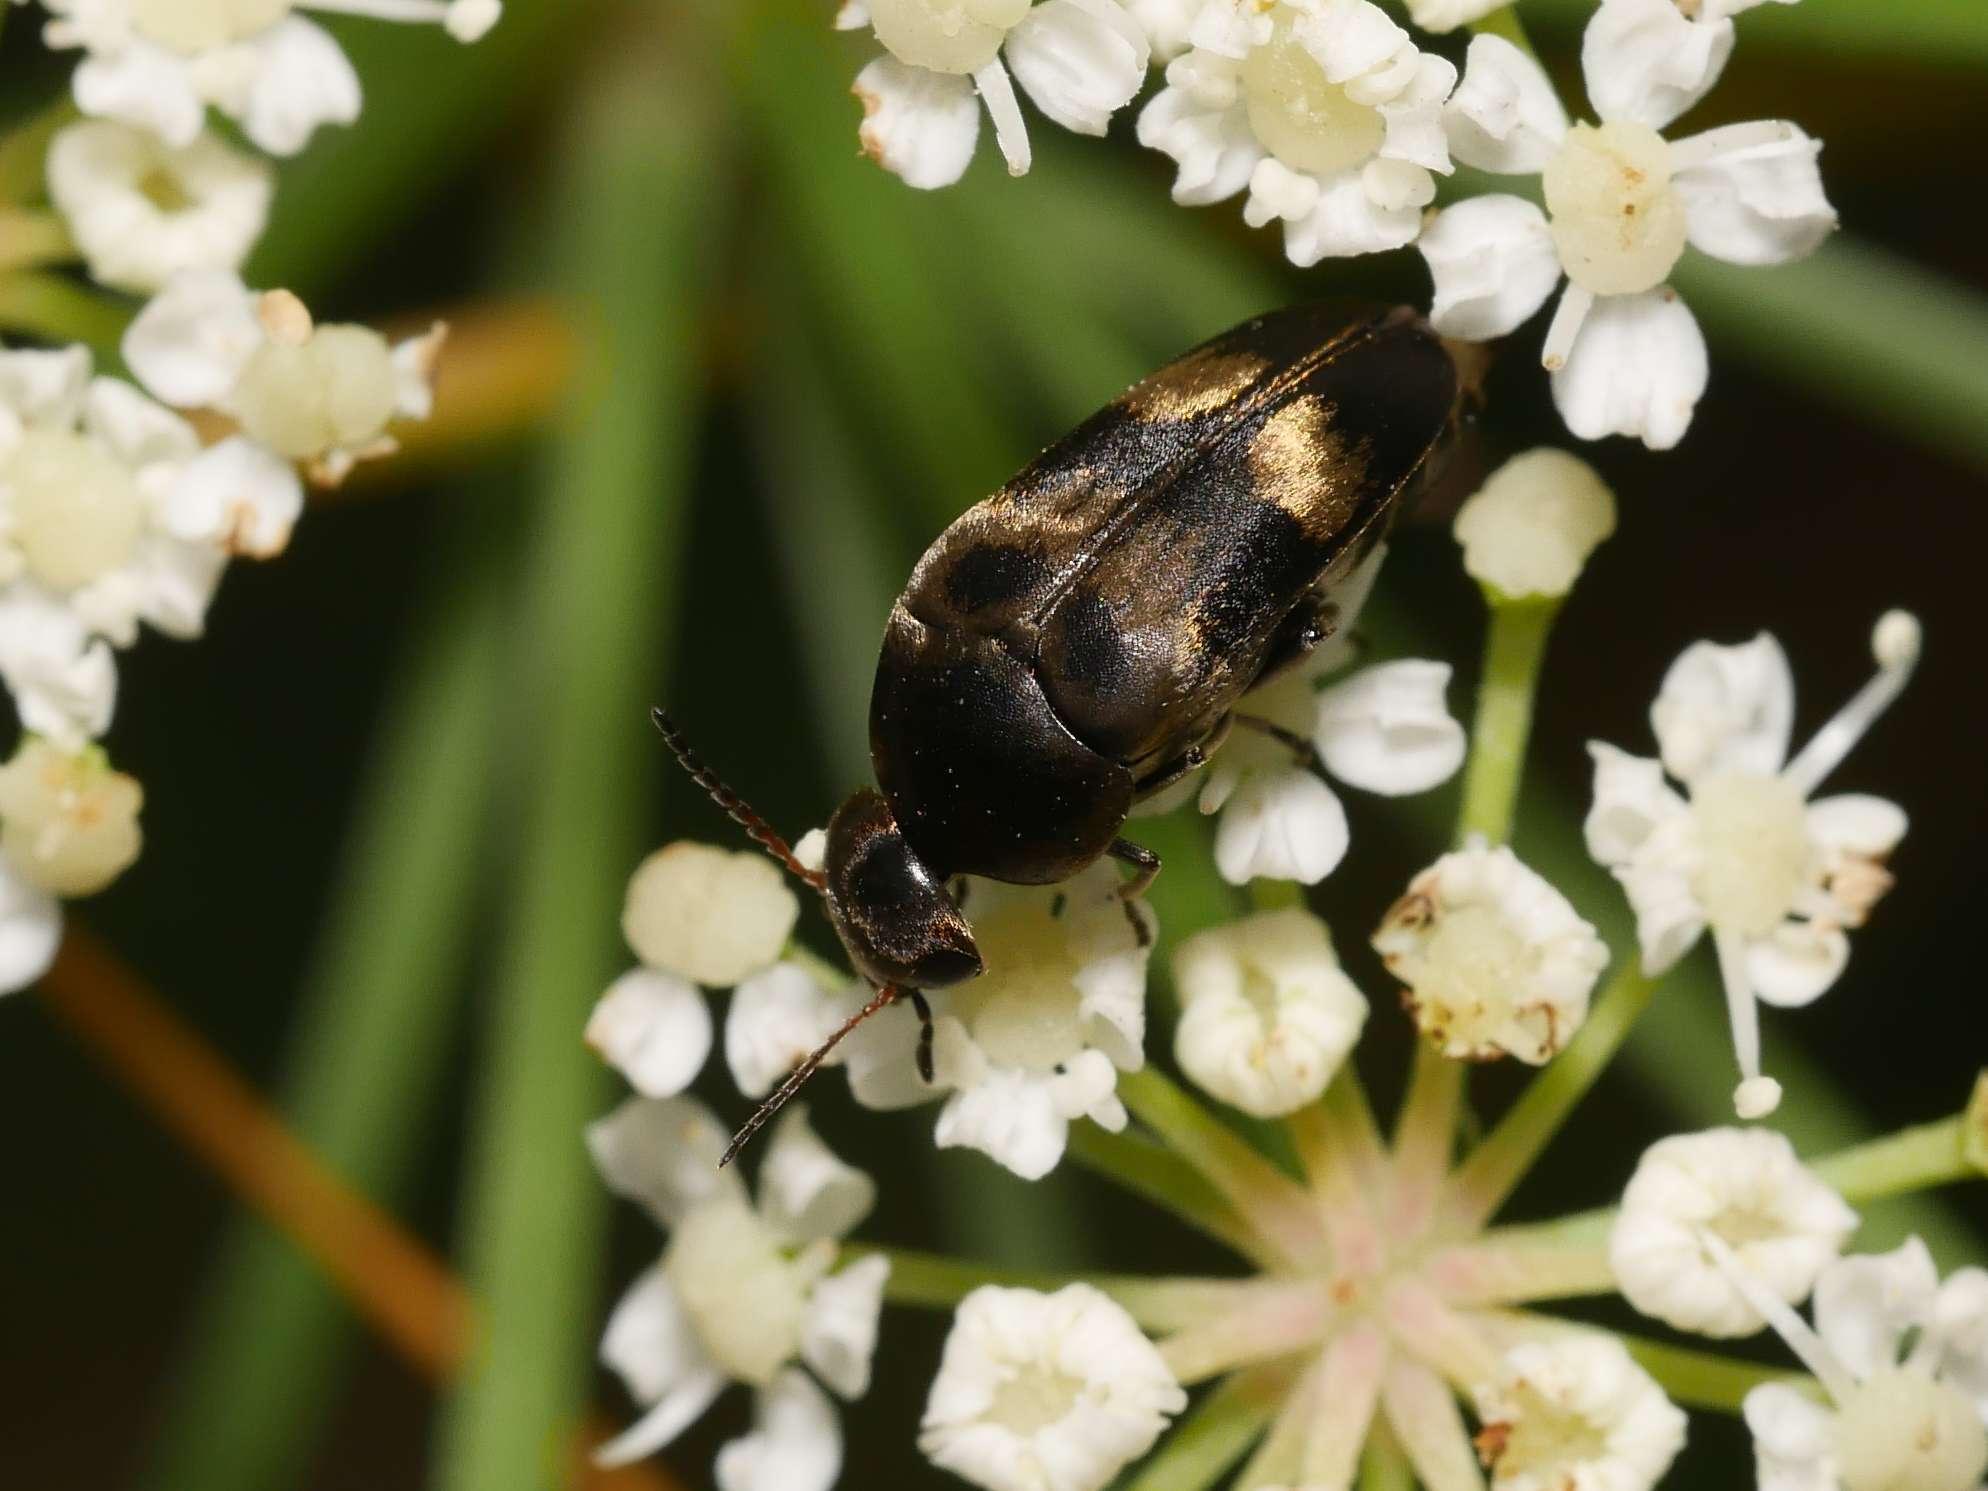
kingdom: Animalia
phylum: Arthropoda
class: Insecta
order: Coleoptera
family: Mordellidae
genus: Variimorda
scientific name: Variimorda villosa
